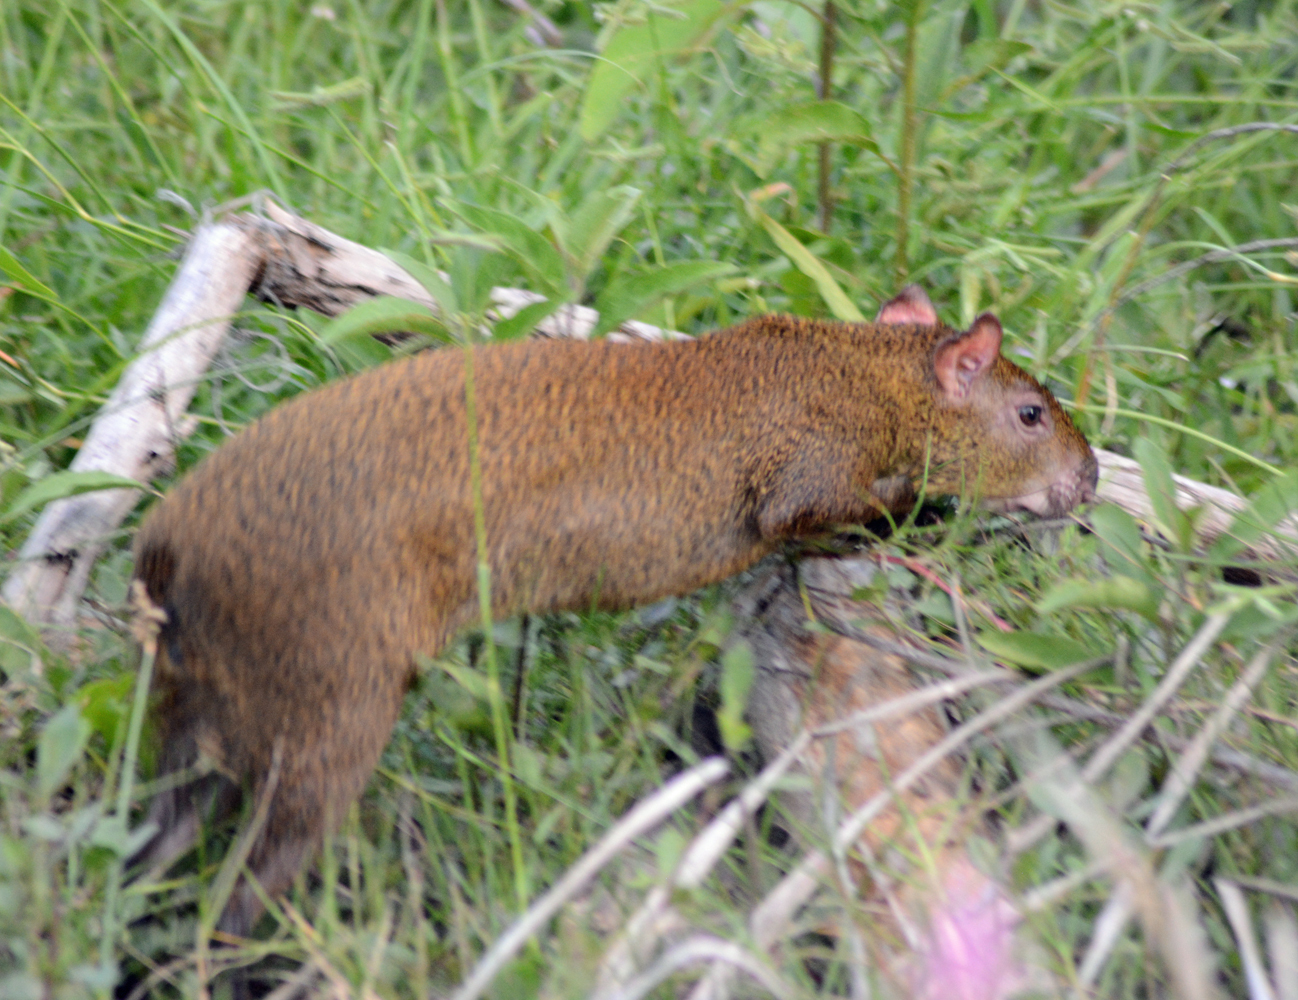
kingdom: Animalia
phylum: Chordata
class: Mammalia
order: Rodentia
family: Dasyproctidae
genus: Dasyprocta
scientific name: Dasyprocta punctata
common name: Central american agouti
